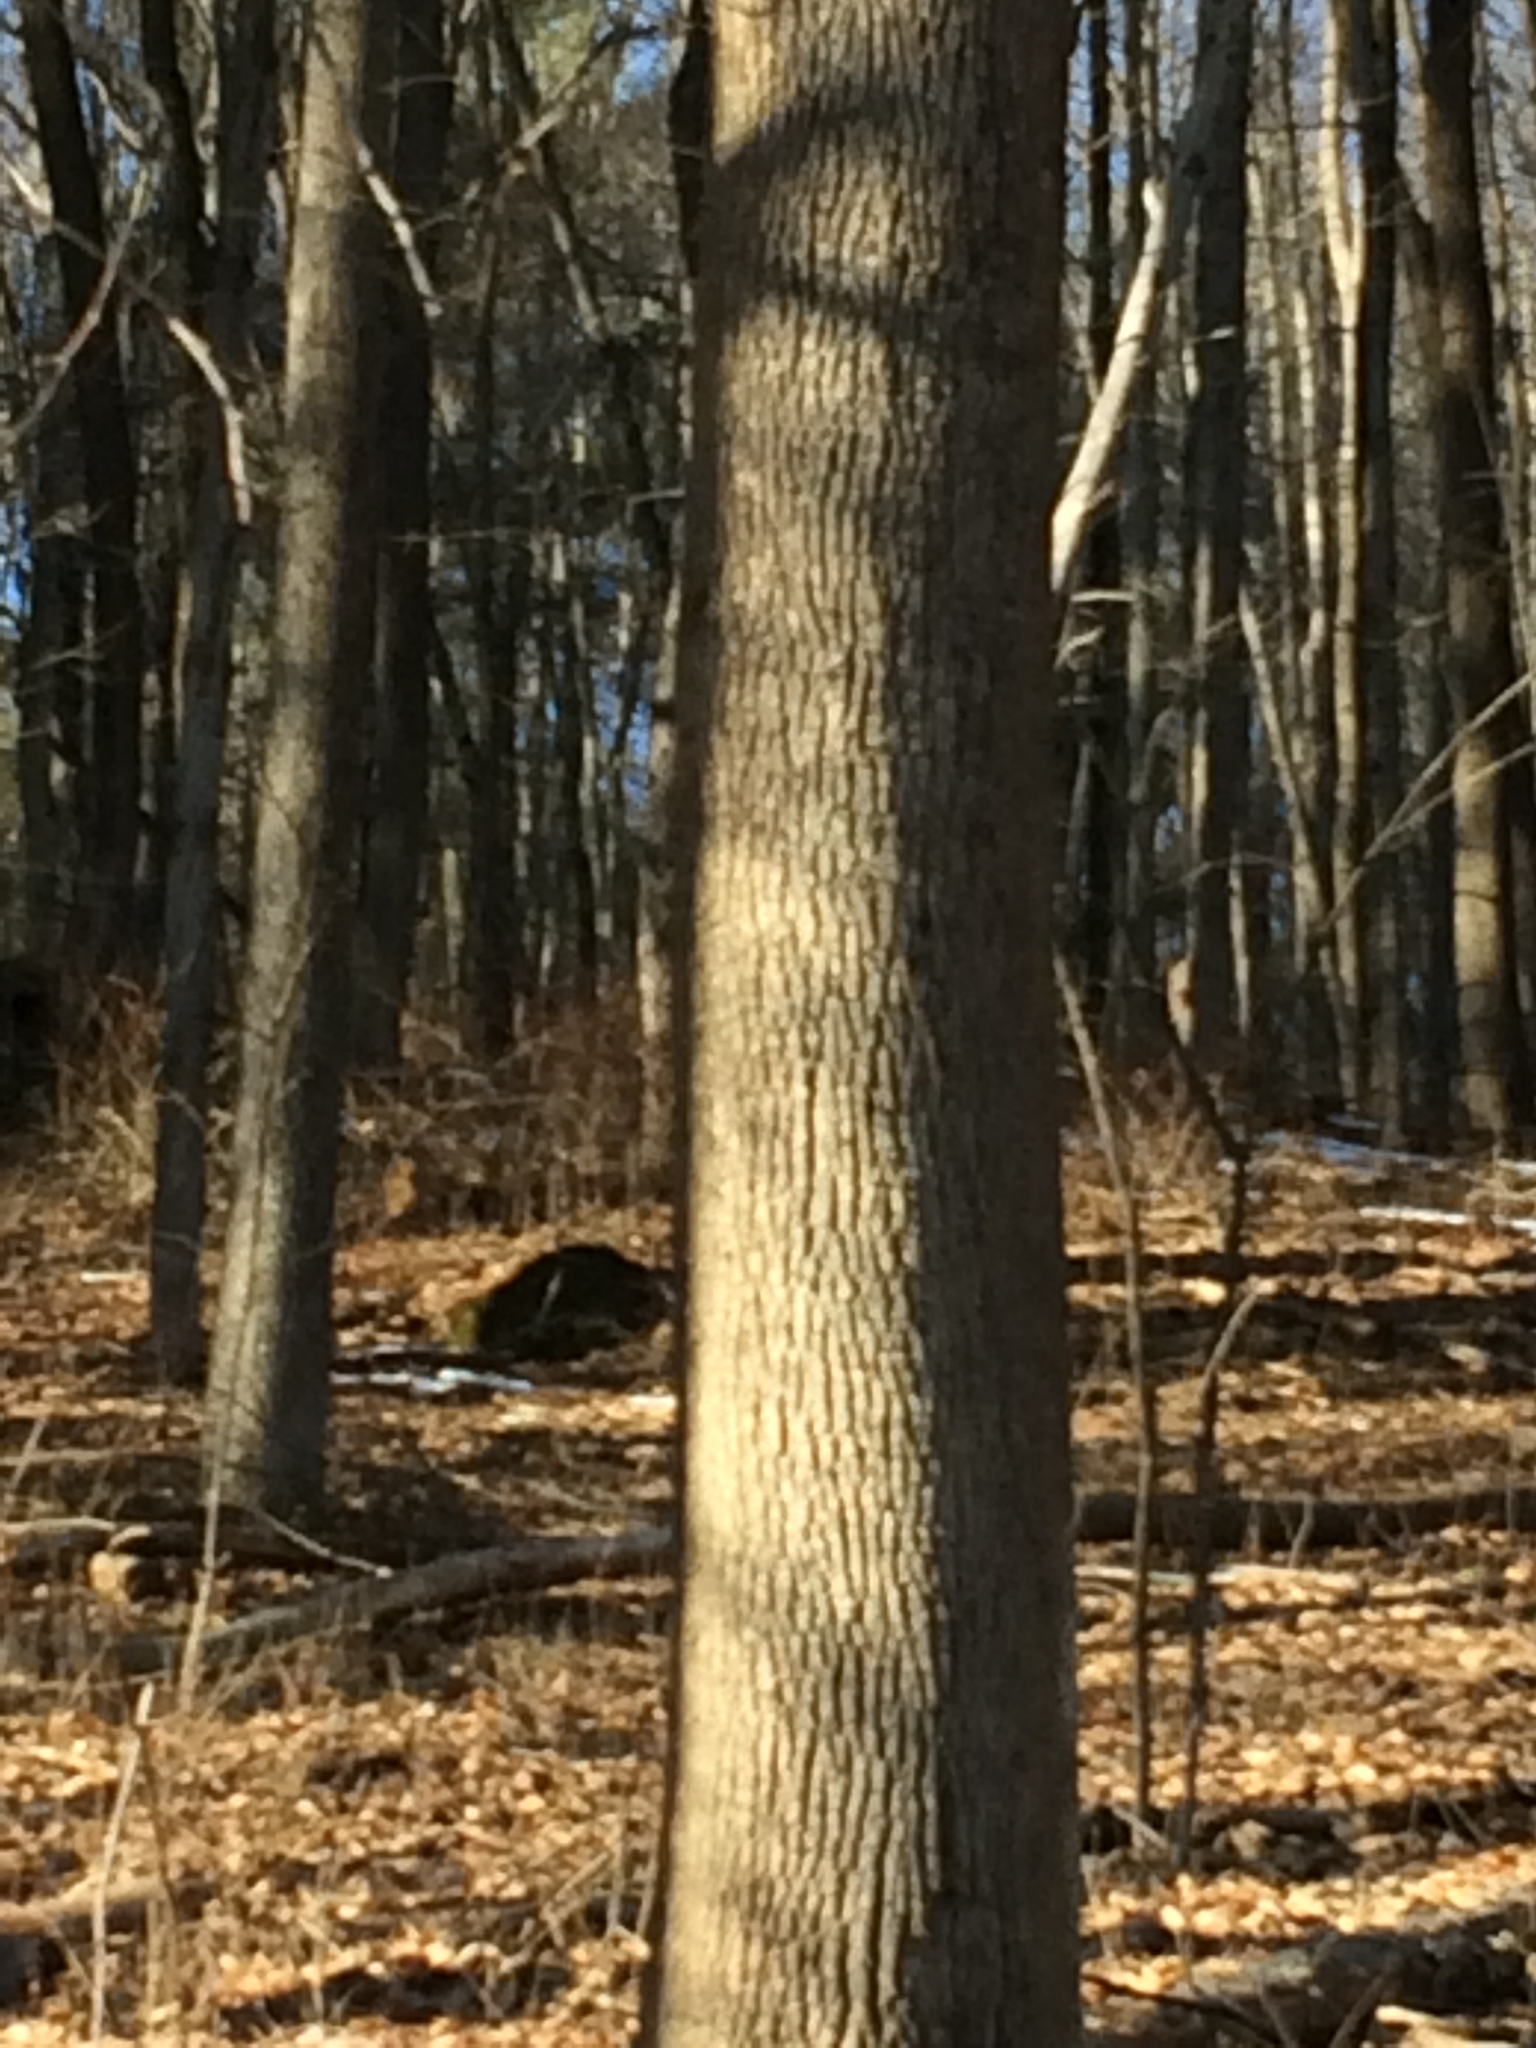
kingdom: Plantae
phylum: Tracheophyta
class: Magnoliopsida
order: Lamiales
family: Oleaceae
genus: Fraxinus
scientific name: Fraxinus americana
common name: White ash
